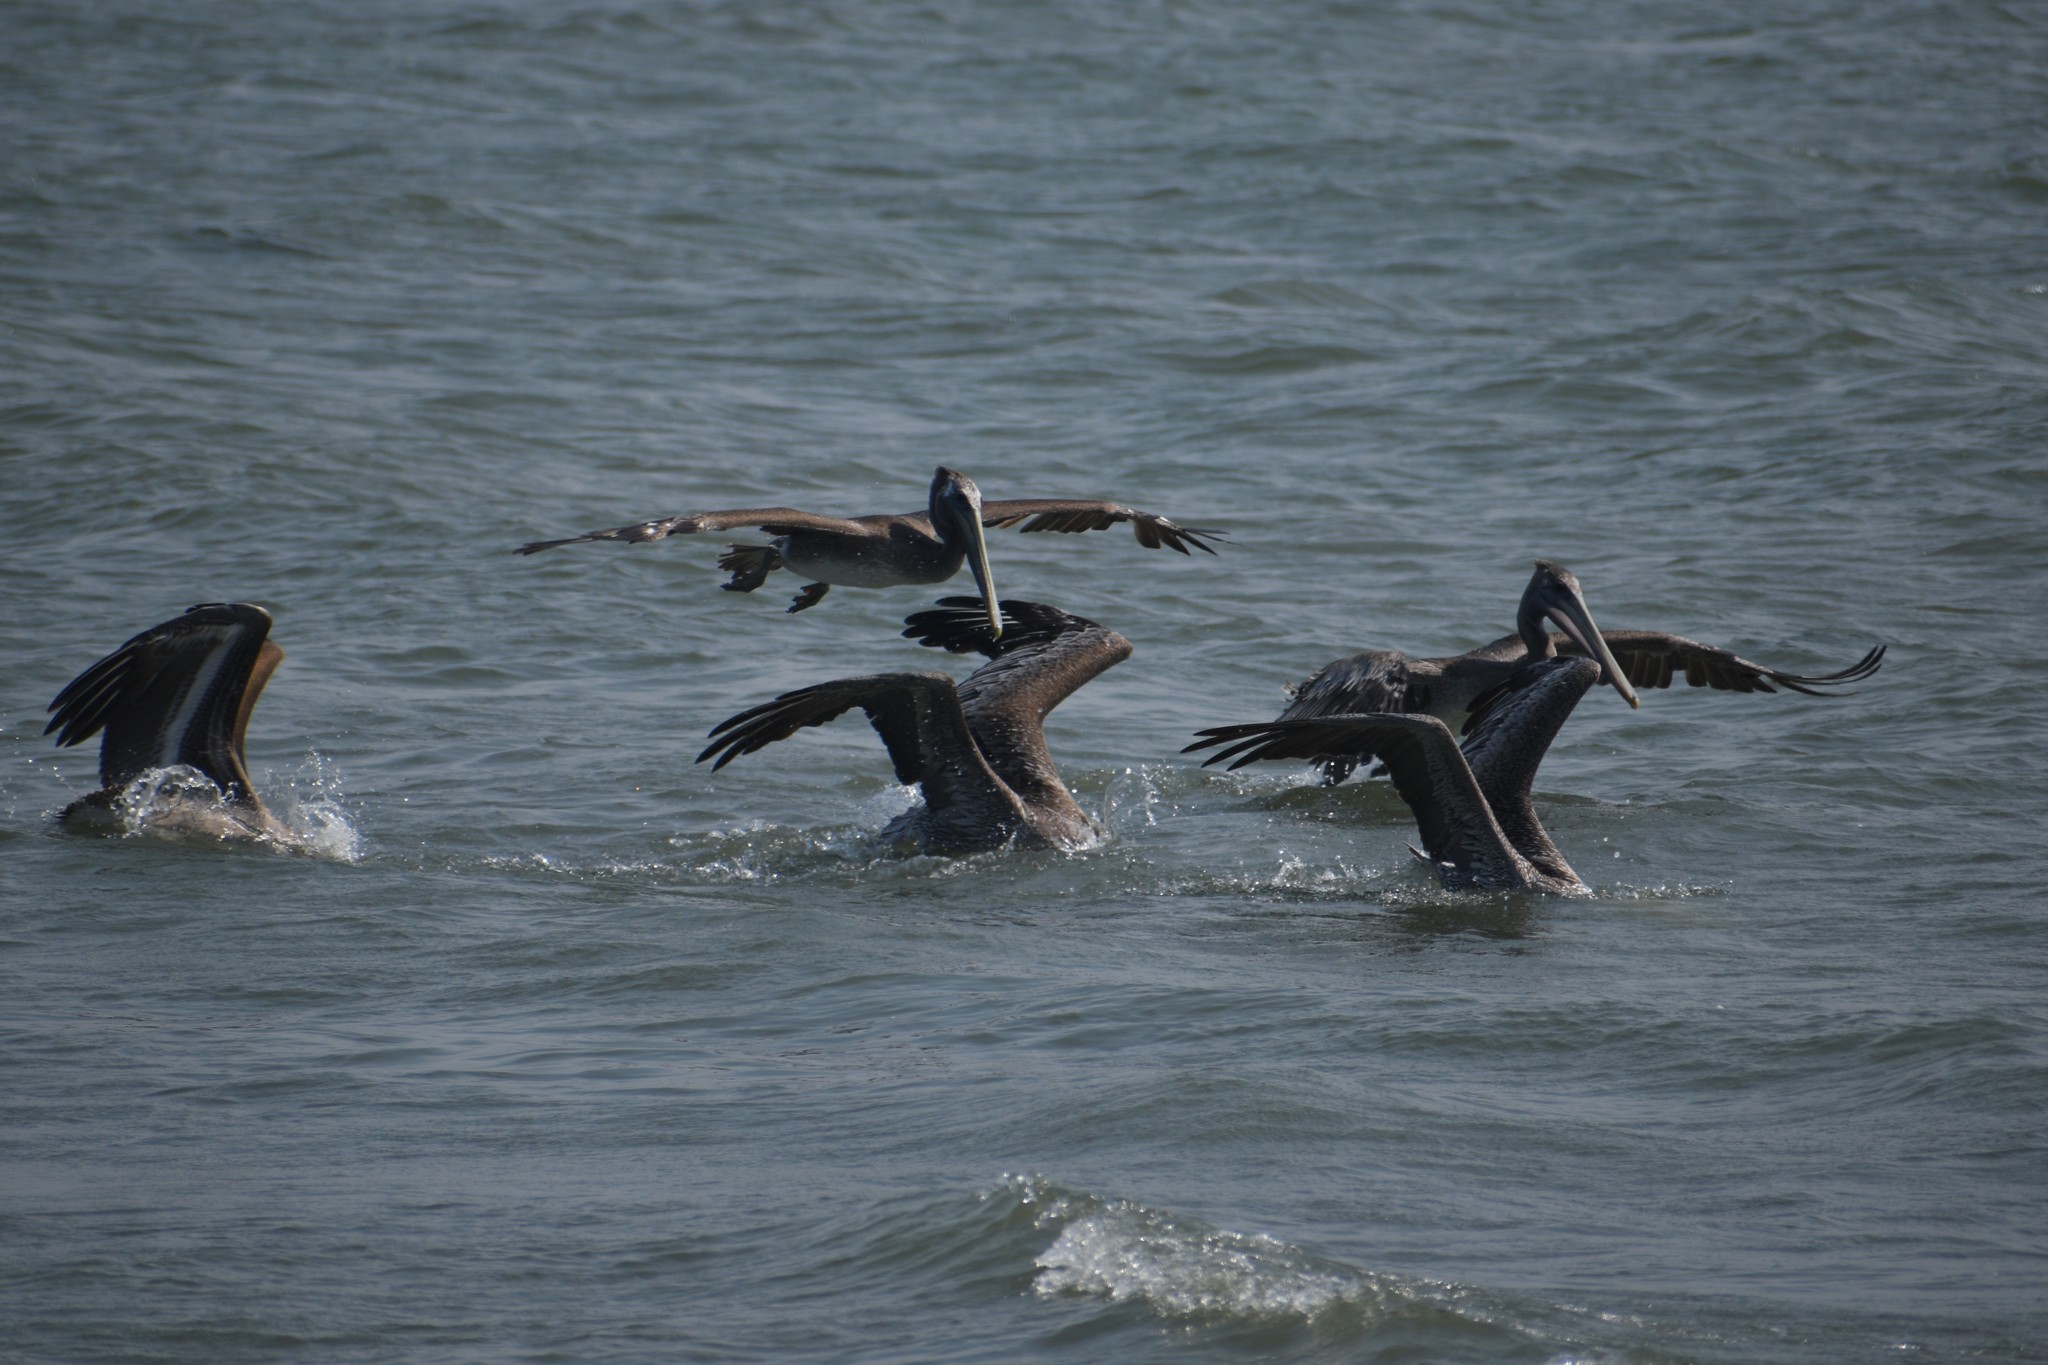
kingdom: Animalia
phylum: Chordata
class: Aves
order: Pelecaniformes
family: Pelecanidae
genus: Pelecanus
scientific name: Pelecanus occidentalis
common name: Brown pelican
